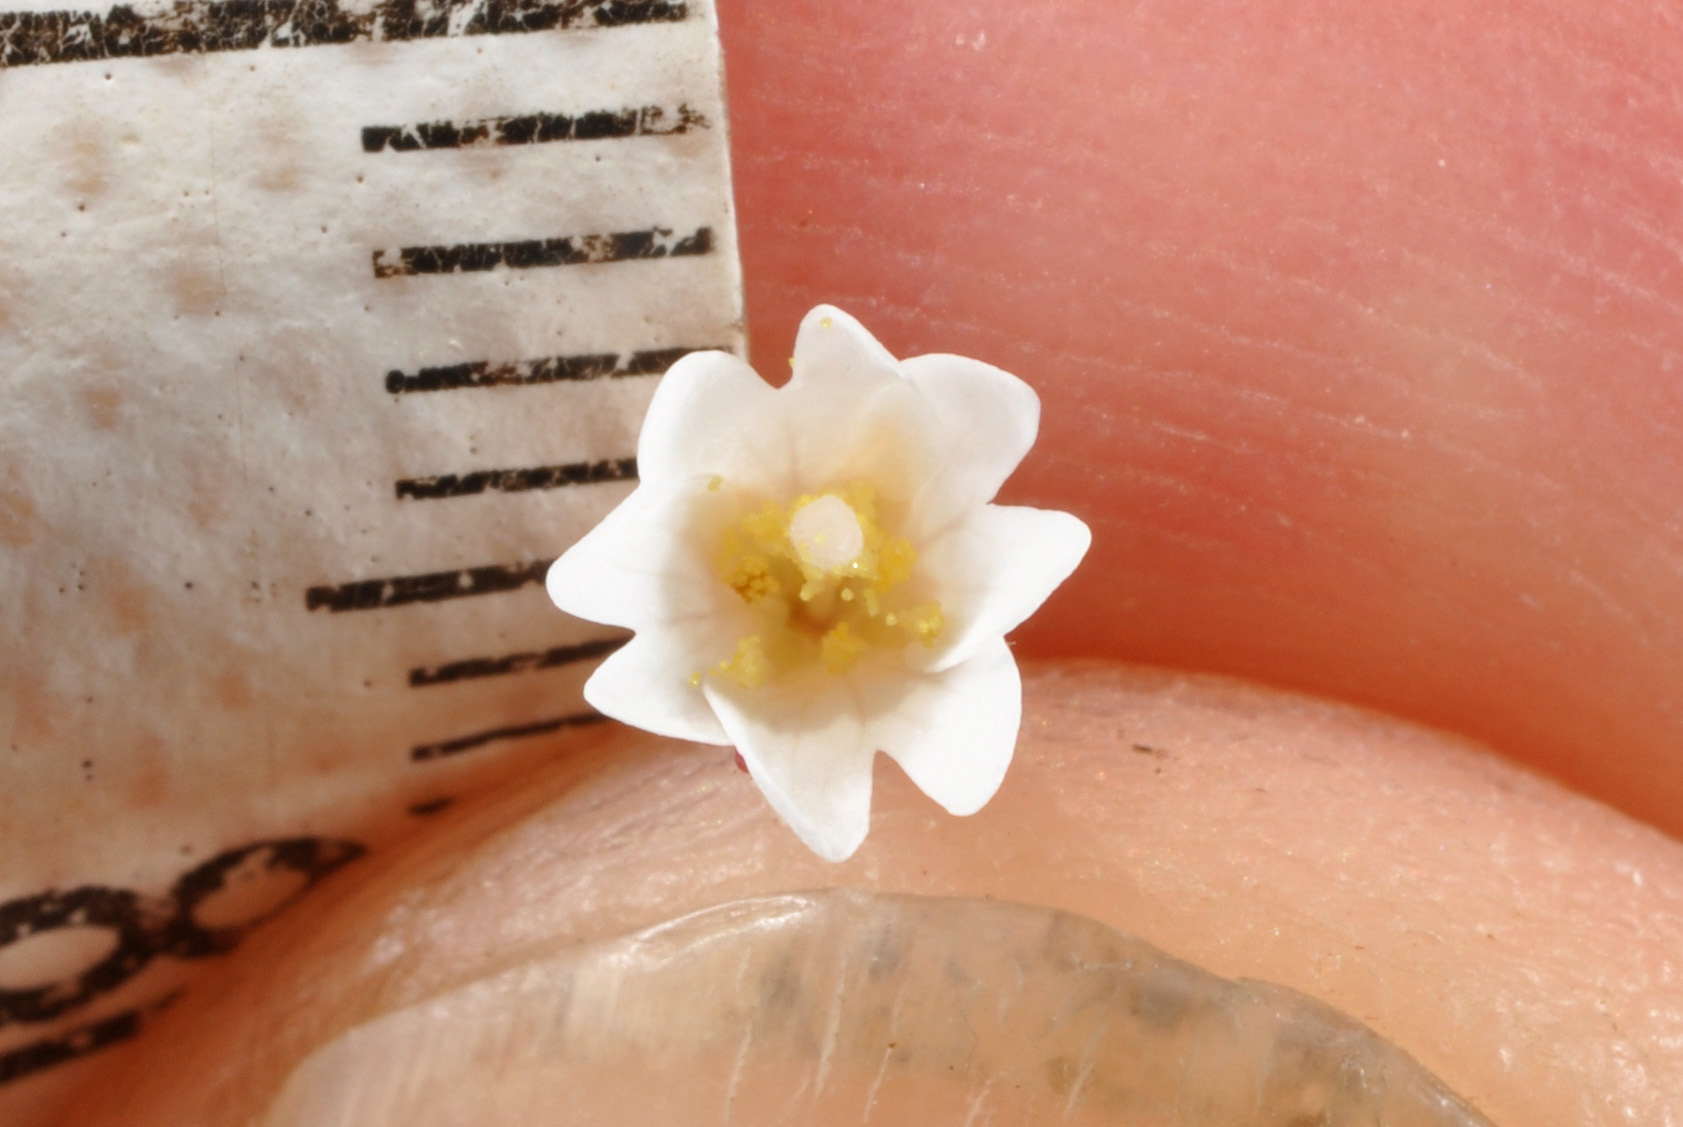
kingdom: Plantae
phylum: Tracheophyta
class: Magnoliopsida
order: Myrtales
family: Onagraceae
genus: Epilobium
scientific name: Epilobium brunnescens
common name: New zealand willowherb
